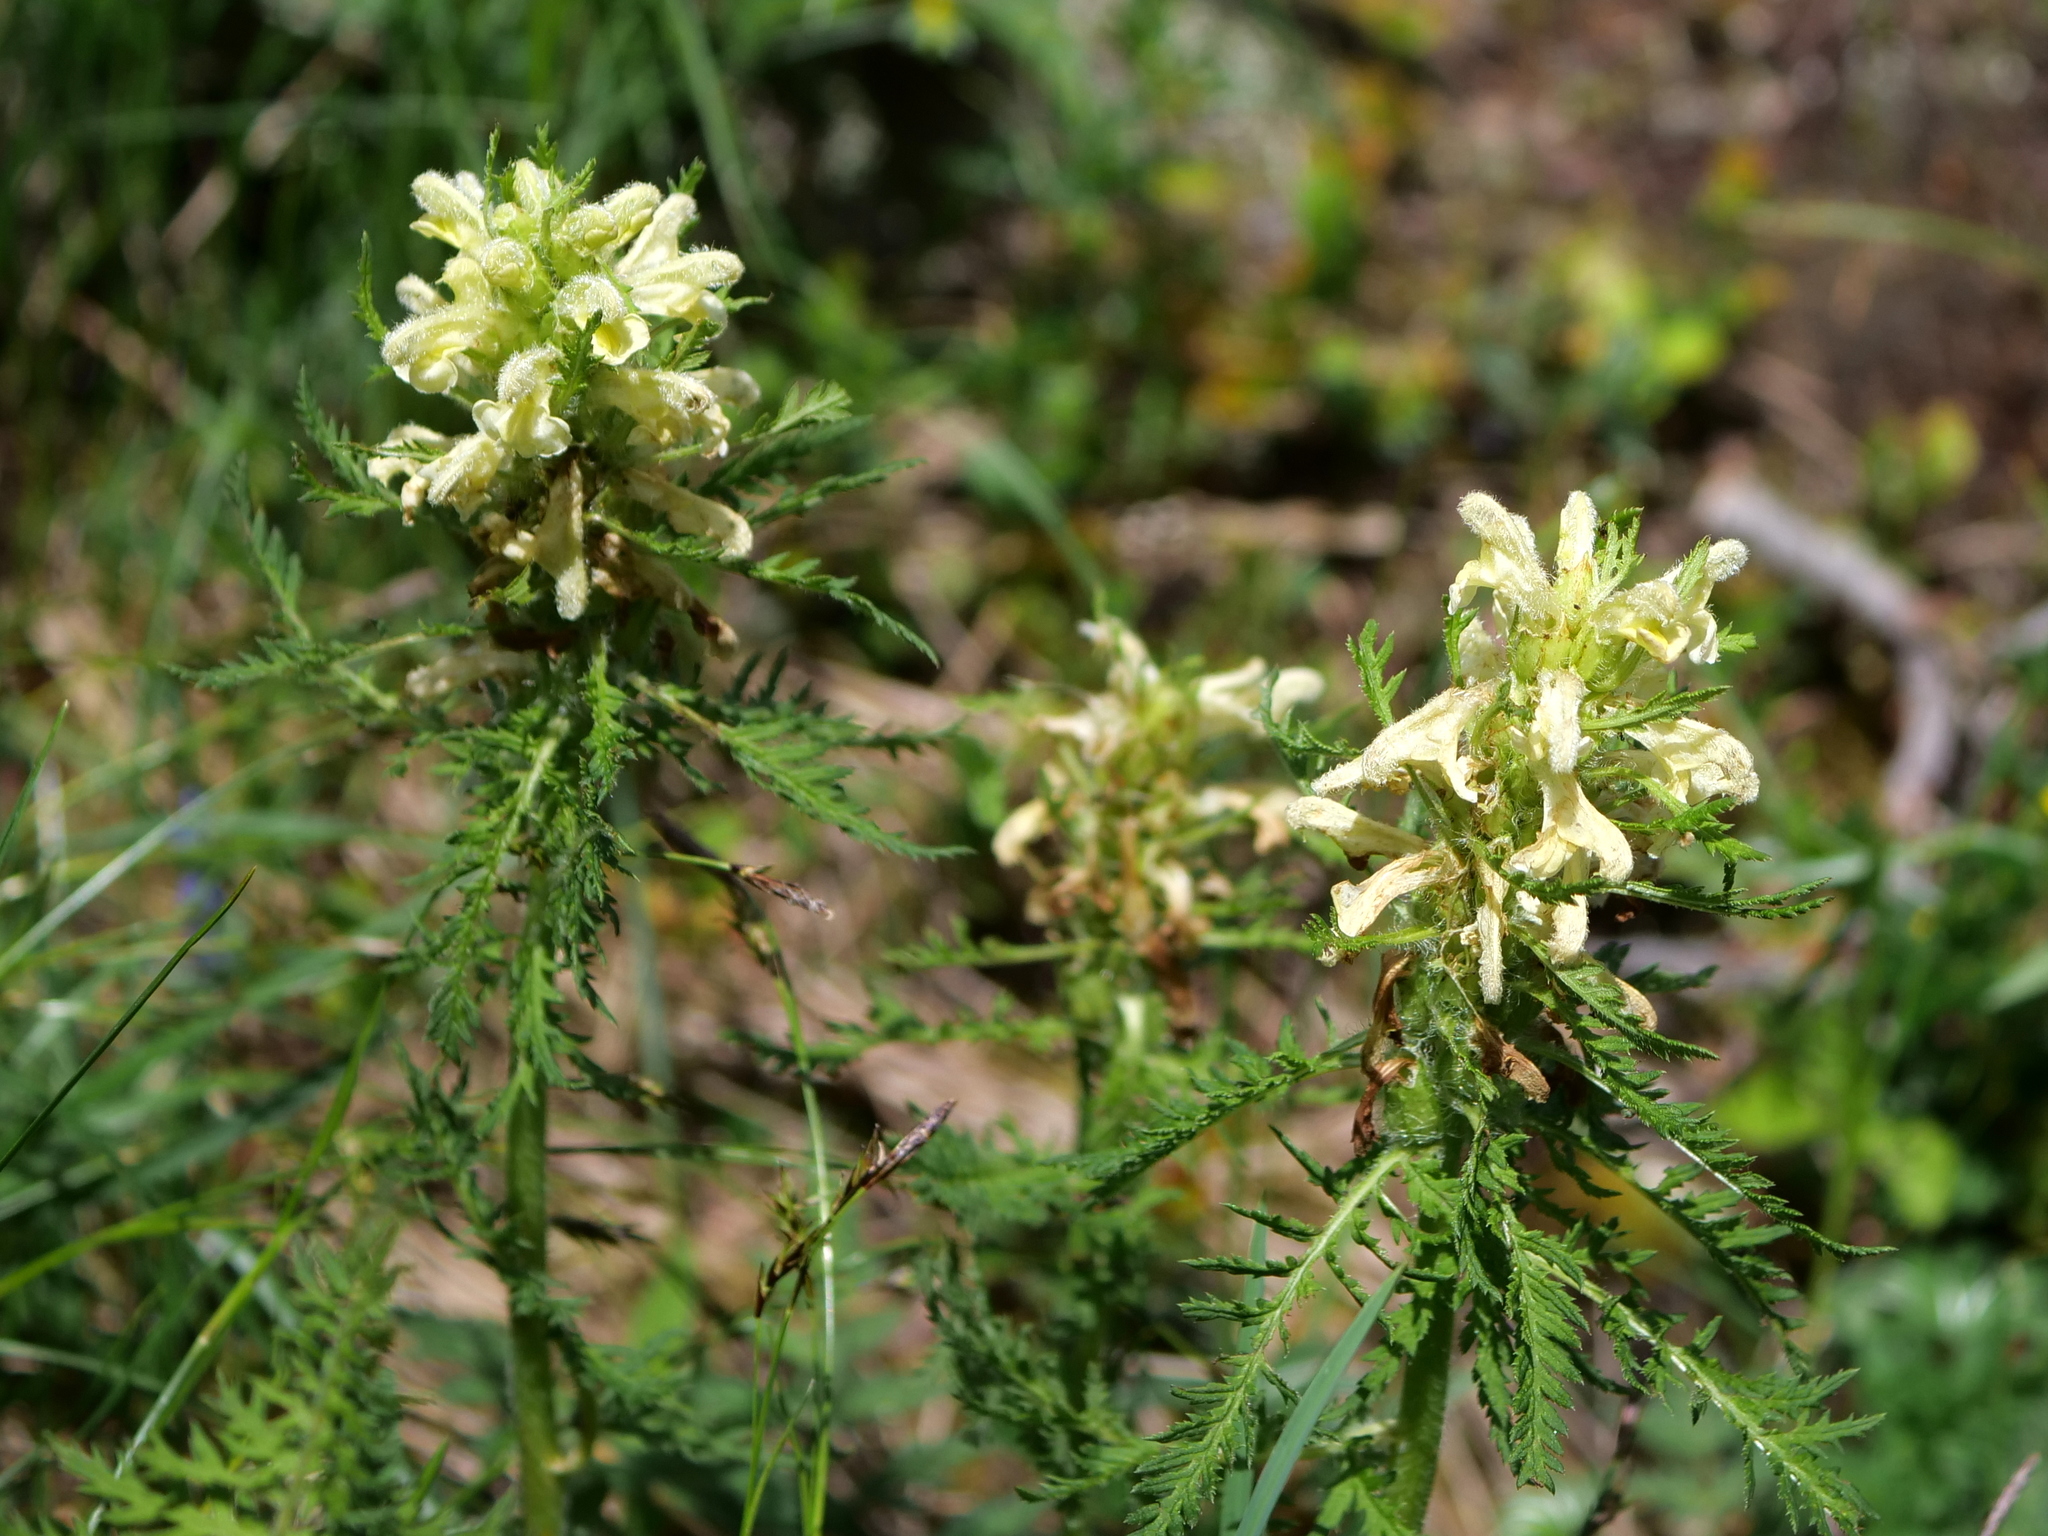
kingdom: Plantae
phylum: Tracheophyta
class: Magnoliopsida
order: Lamiales
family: Orobanchaceae
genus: Pedicularis
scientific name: Pedicularis foliosa
